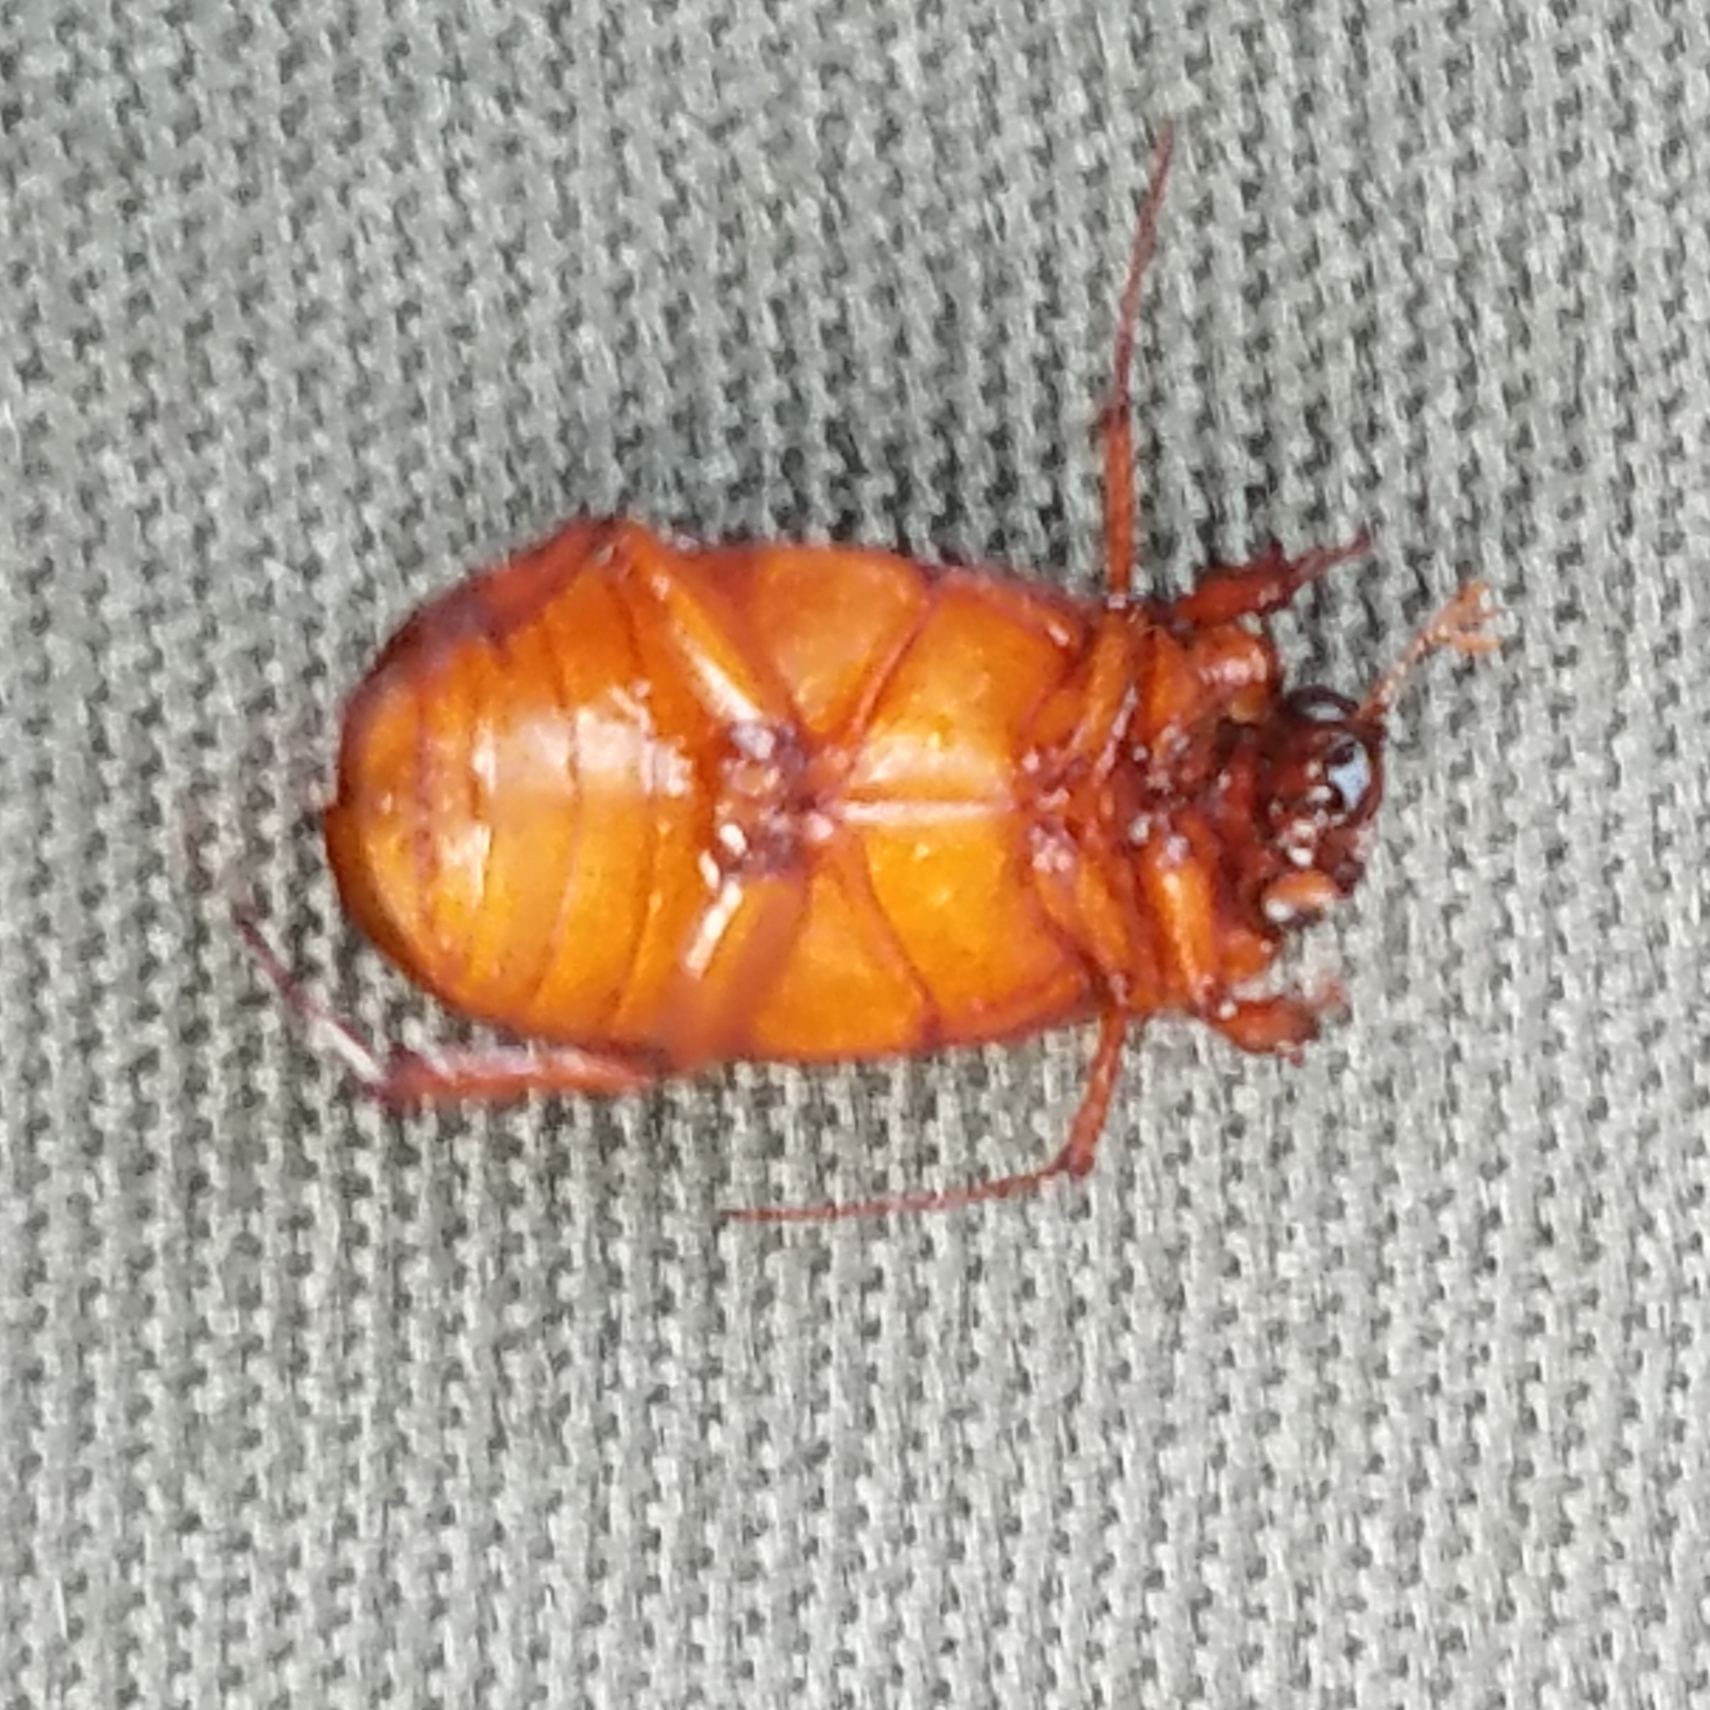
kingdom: Animalia
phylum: Arthropoda
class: Insecta
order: Coleoptera
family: Scarabaeidae
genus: Serica
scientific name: Serica brunnea
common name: Brown chafer
